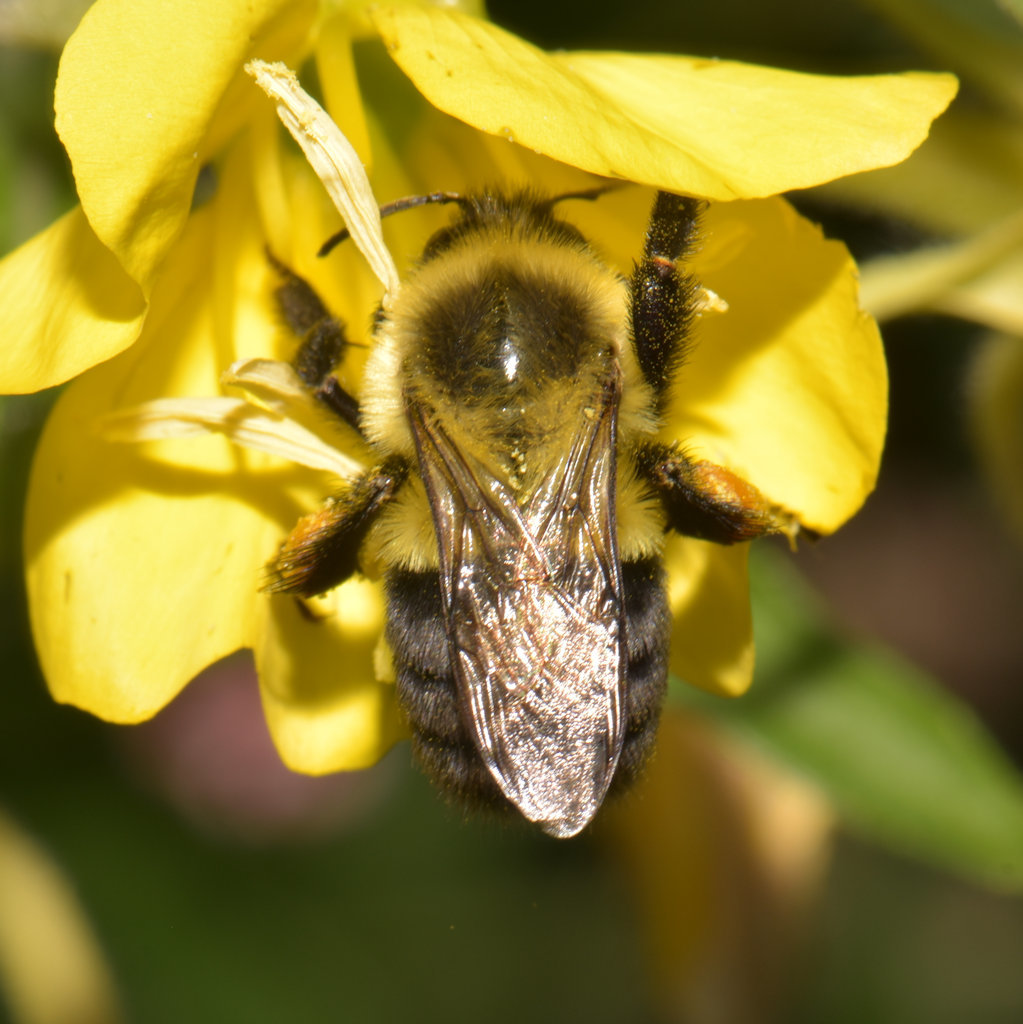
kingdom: Animalia
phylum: Arthropoda
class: Insecta
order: Hymenoptera
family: Apidae
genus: Bombus
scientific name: Bombus impatiens
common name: Common eastern bumble bee
